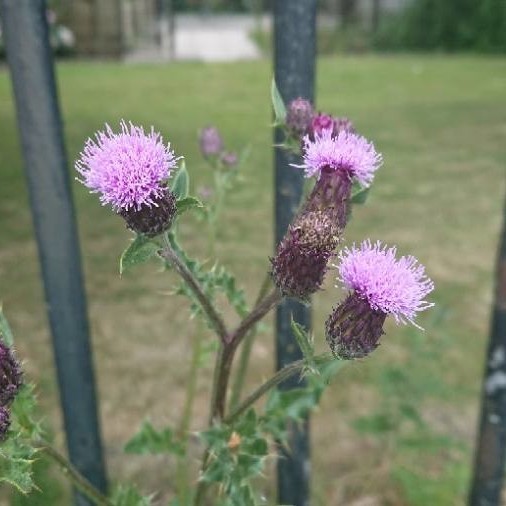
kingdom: Plantae
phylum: Tracheophyta
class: Magnoliopsida
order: Asterales
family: Asteraceae
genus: Cirsium
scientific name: Cirsium arvense
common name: Creeping thistle
